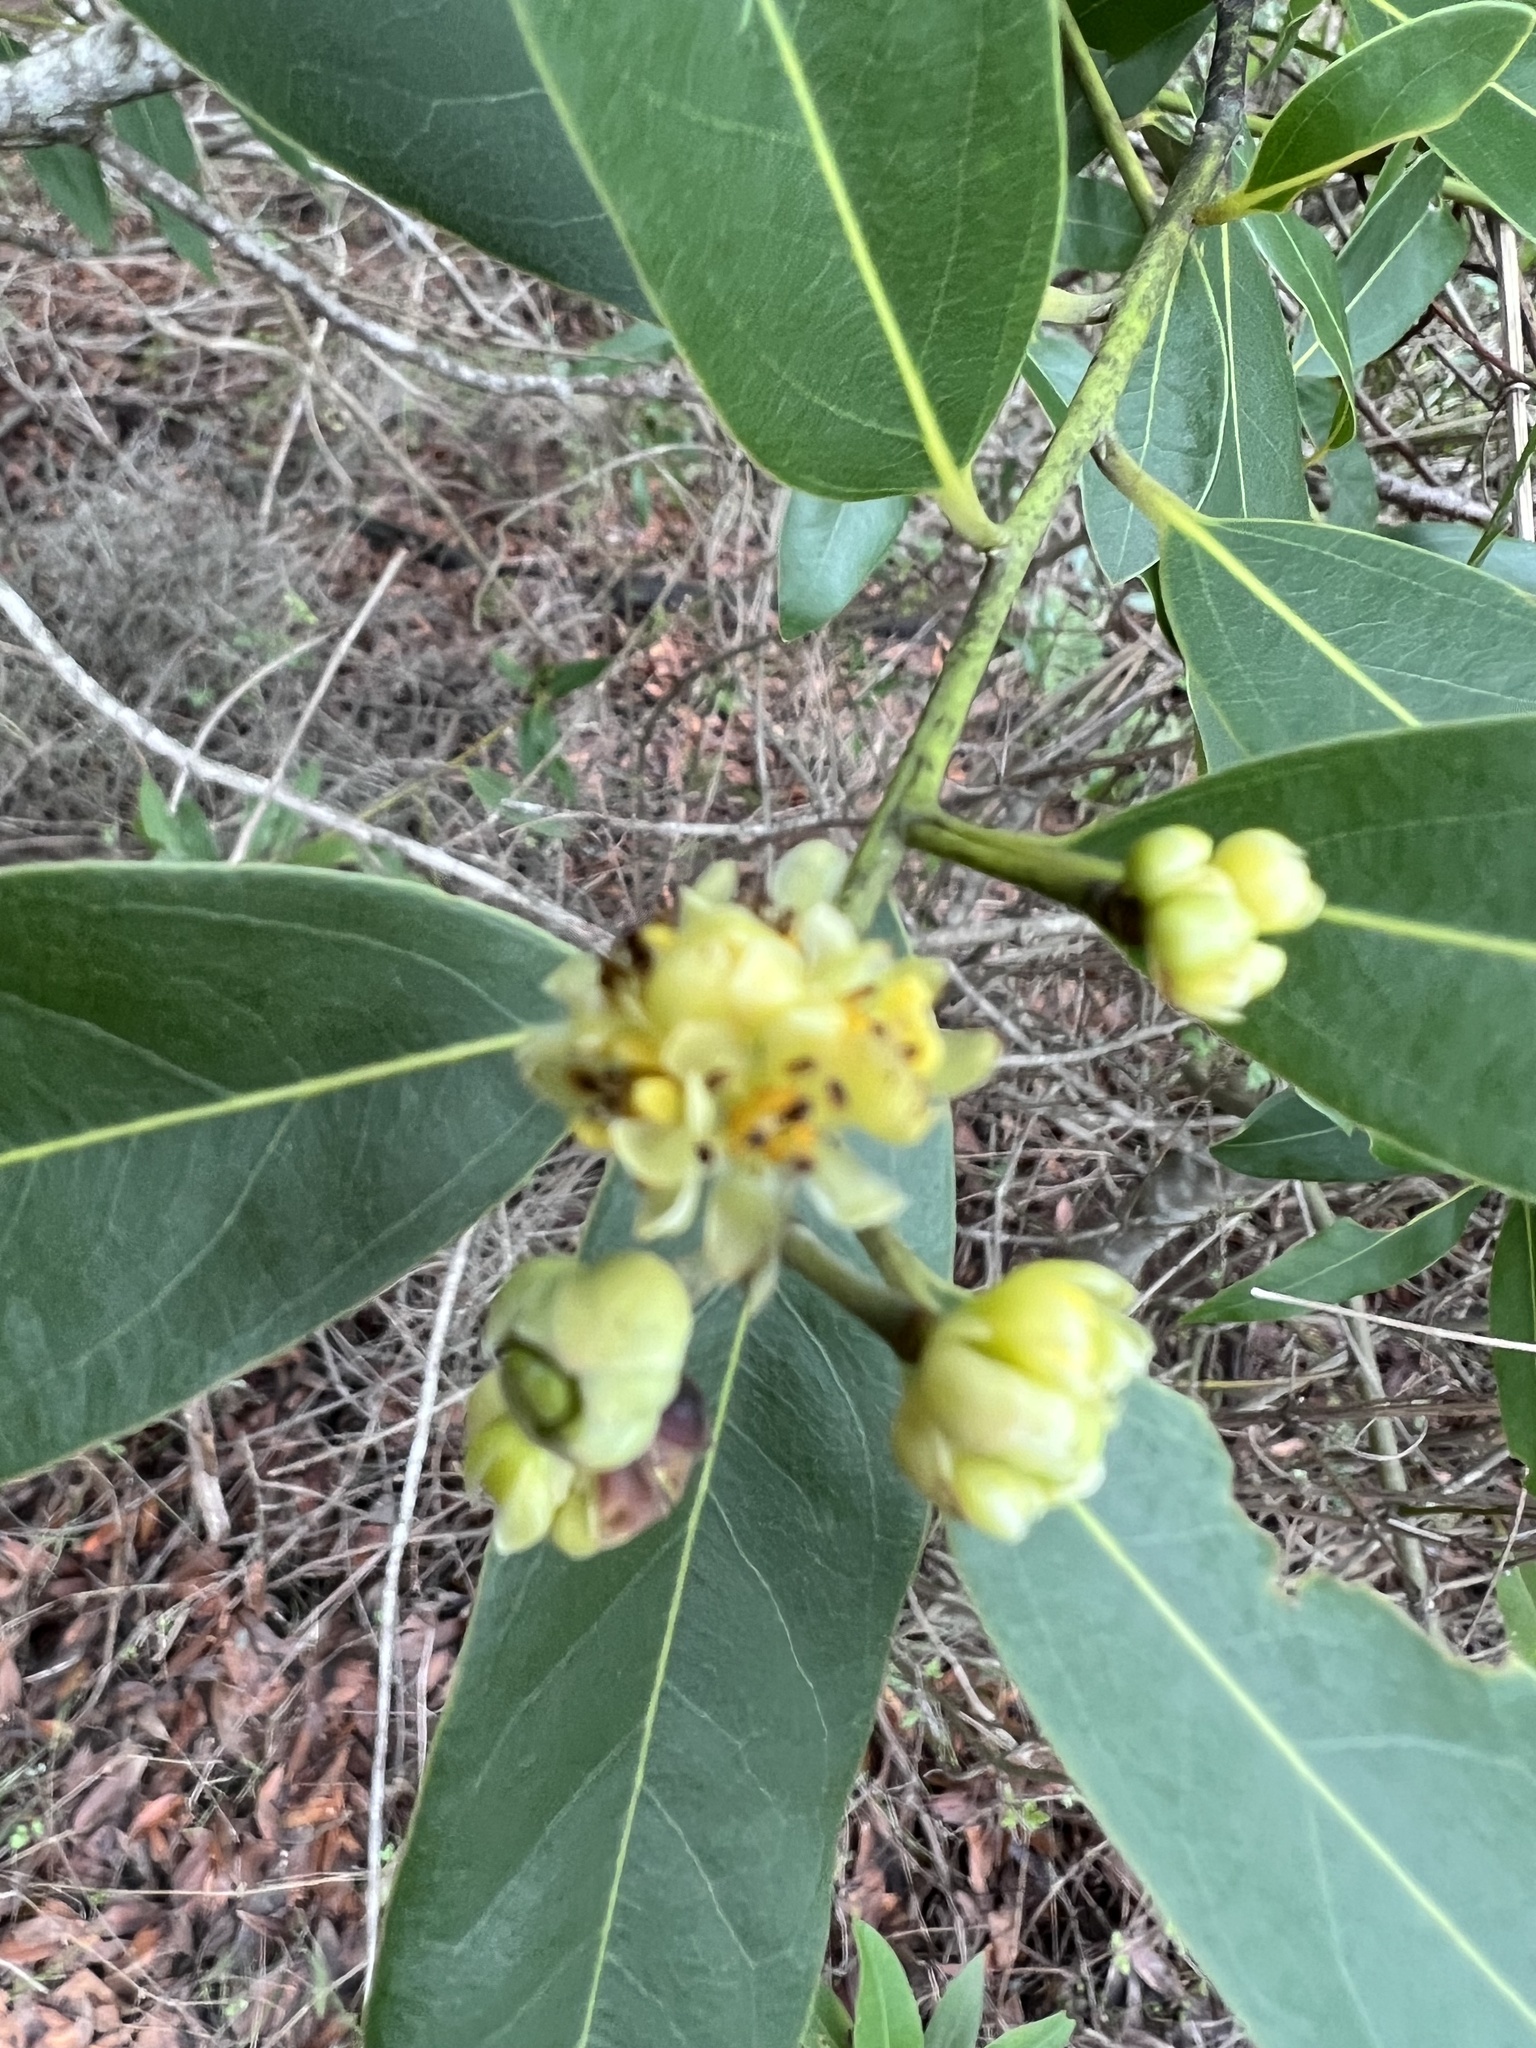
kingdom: Plantae
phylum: Tracheophyta
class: Magnoliopsida
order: Laurales
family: Lauraceae
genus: Umbellularia
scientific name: Umbellularia californica
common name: California bay
